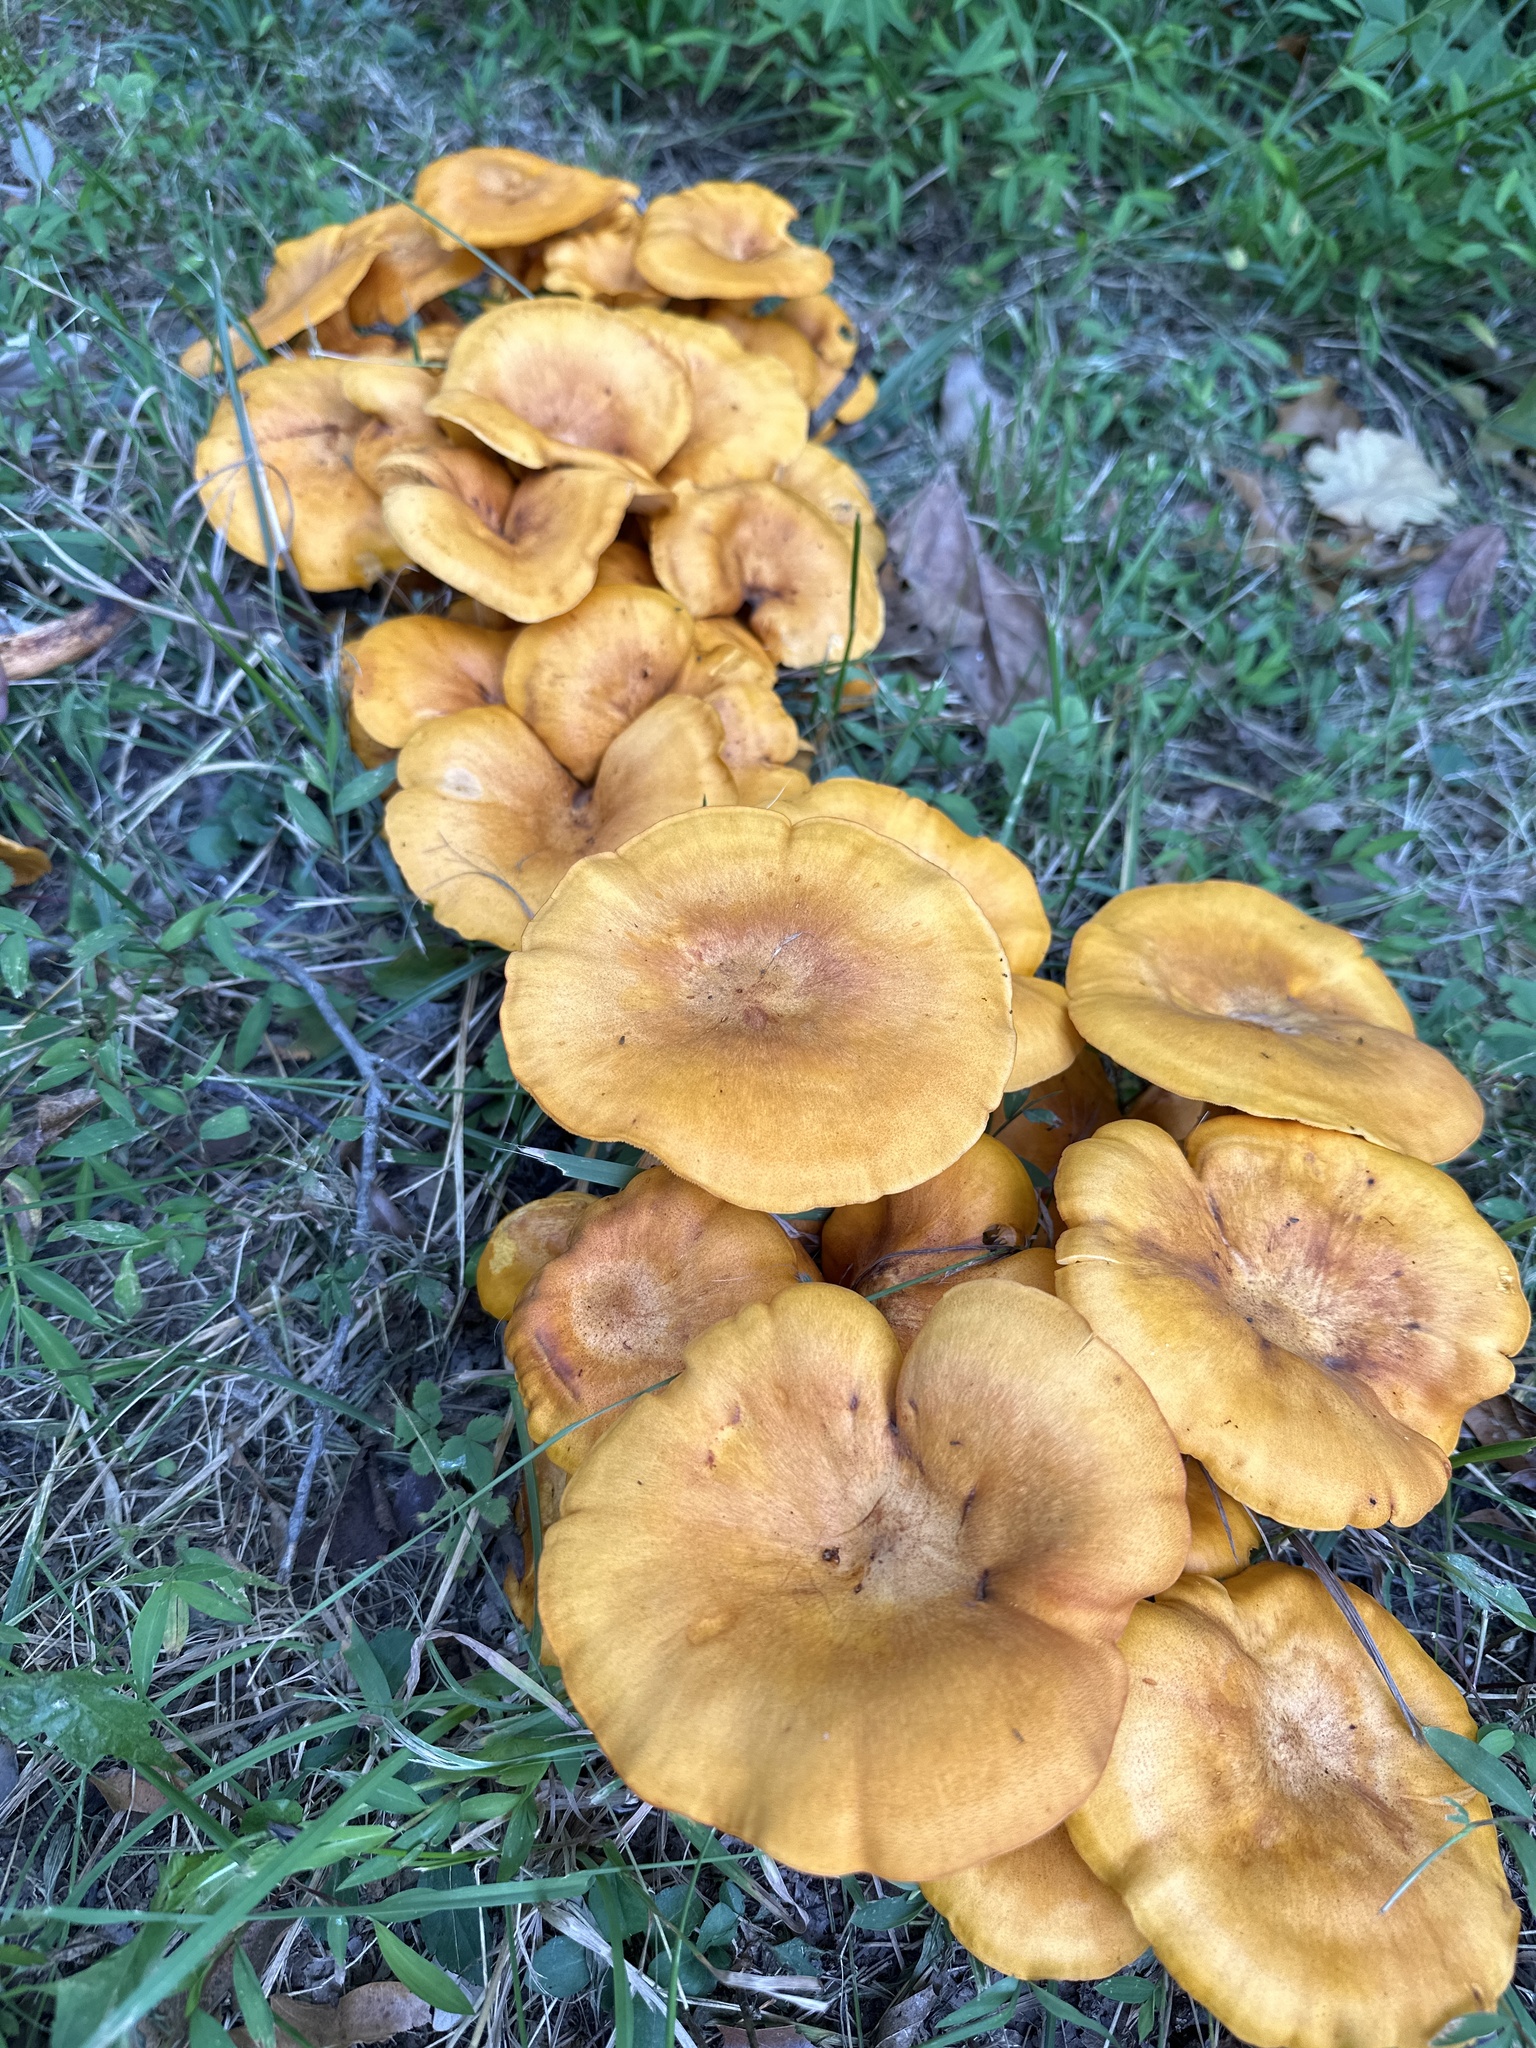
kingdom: Fungi
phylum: Basidiomycota
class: Agaricomycetes
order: Agaricales
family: Omphalotaceae
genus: Omphalotus
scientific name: Omphalotus illudens
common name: Jack o lantern
